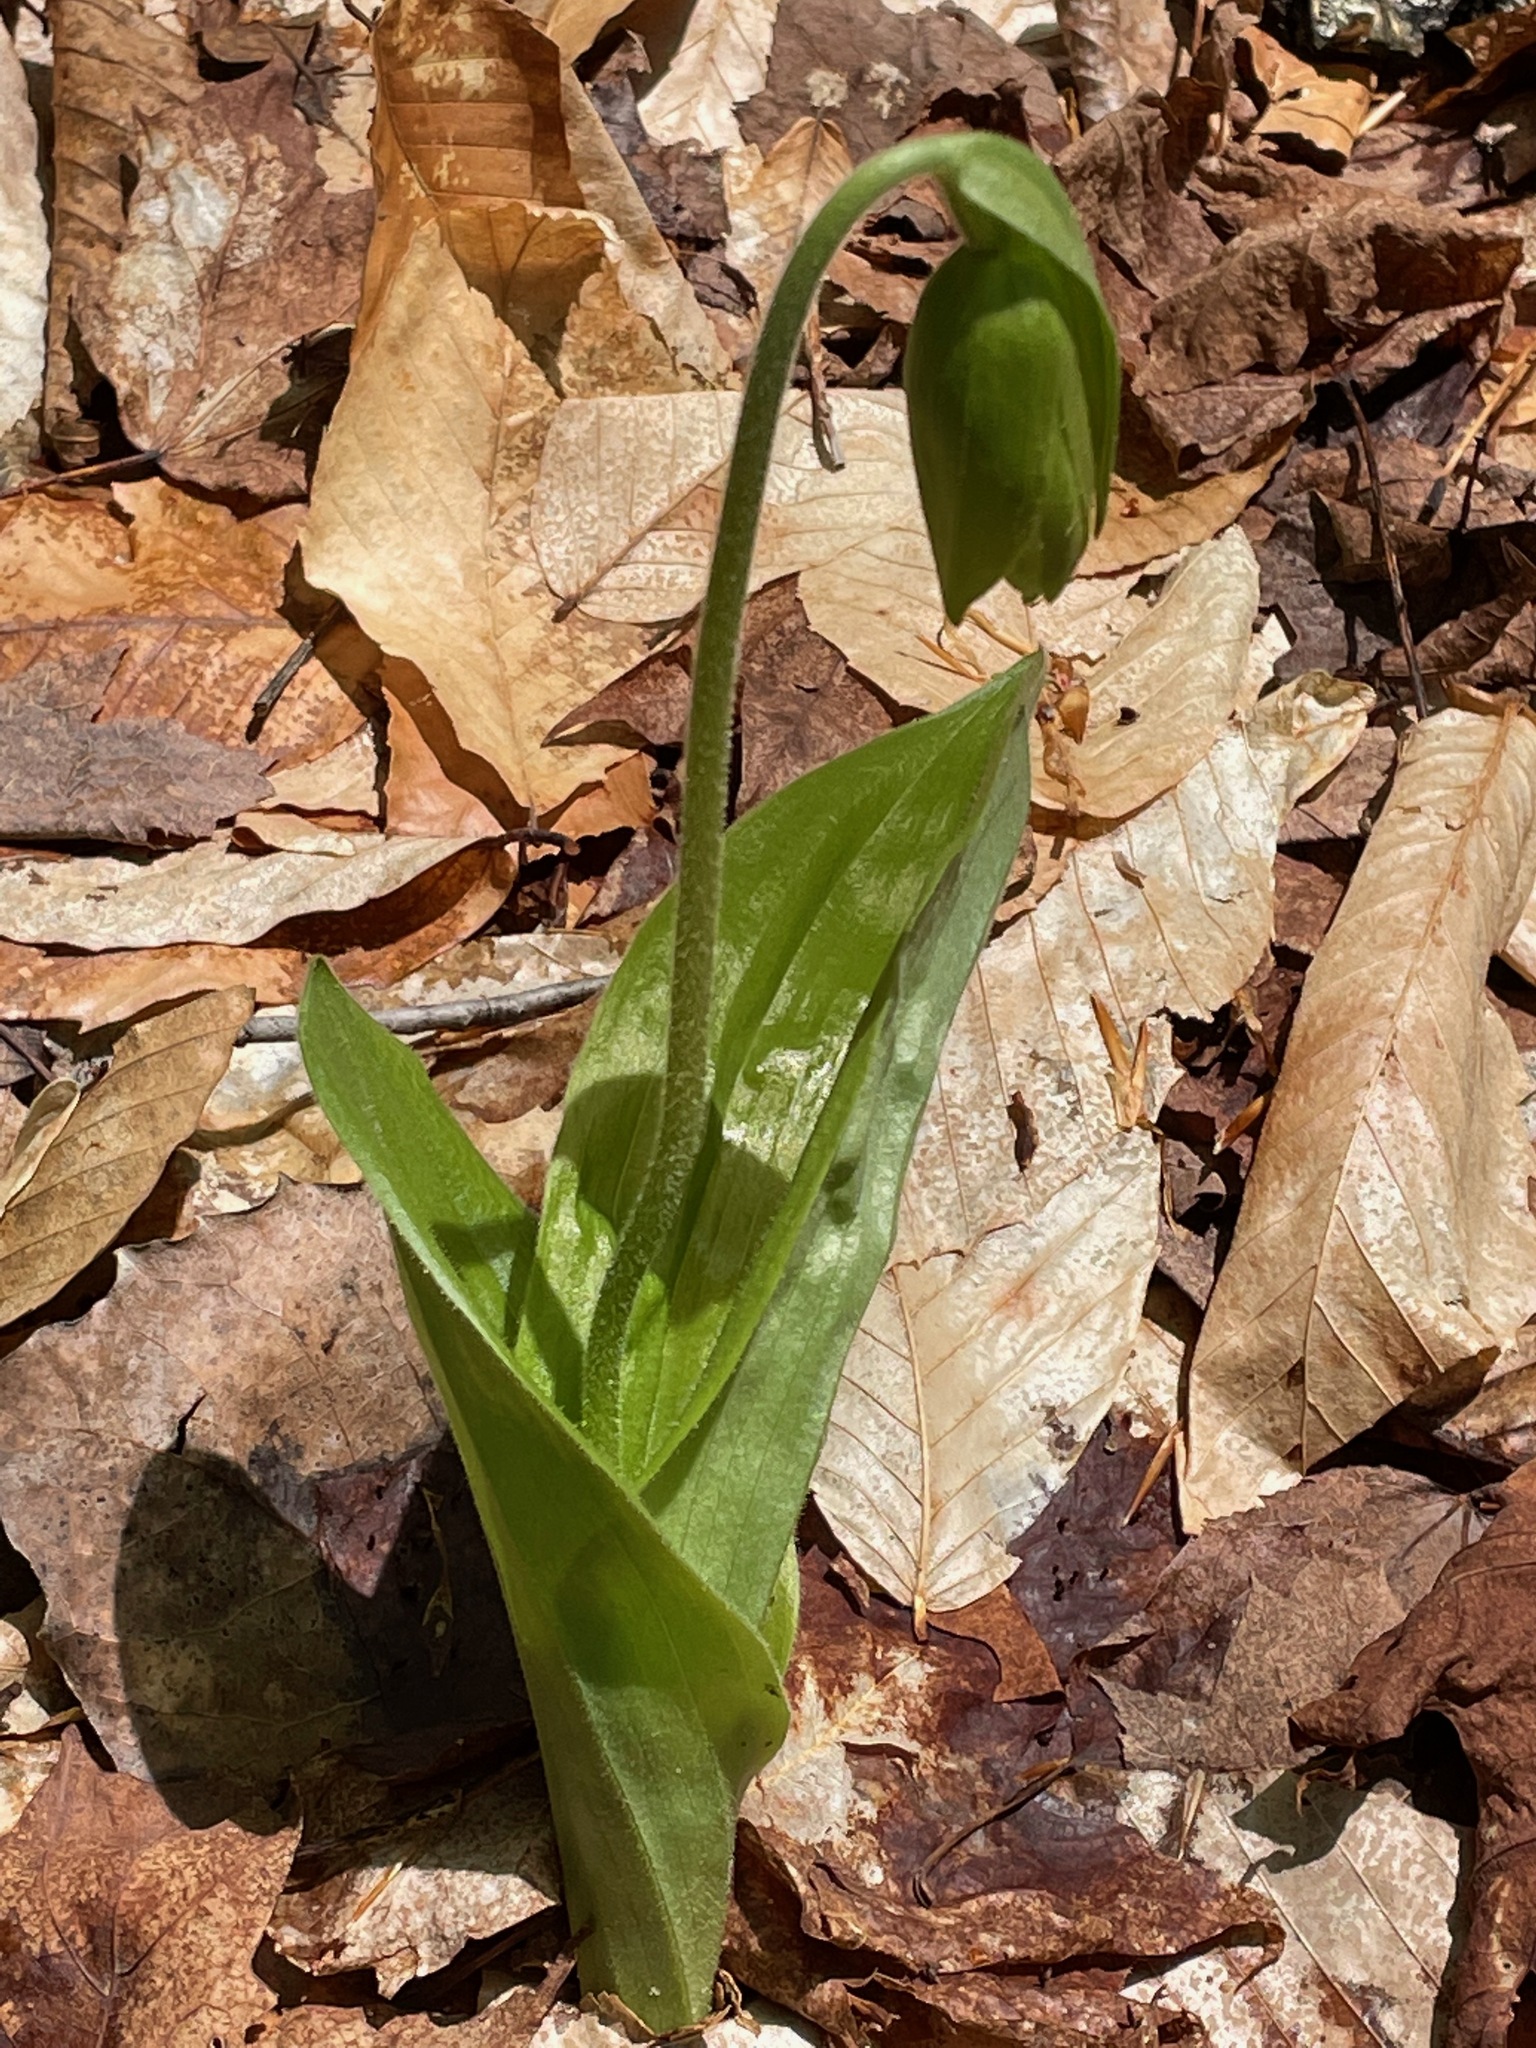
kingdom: Plantae
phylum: Tracheophyta
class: Liliopsida
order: Asparagales
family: Orchidaceae
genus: Cypripedium
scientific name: Cypripedium acaule
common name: Pink lady's-slipper
